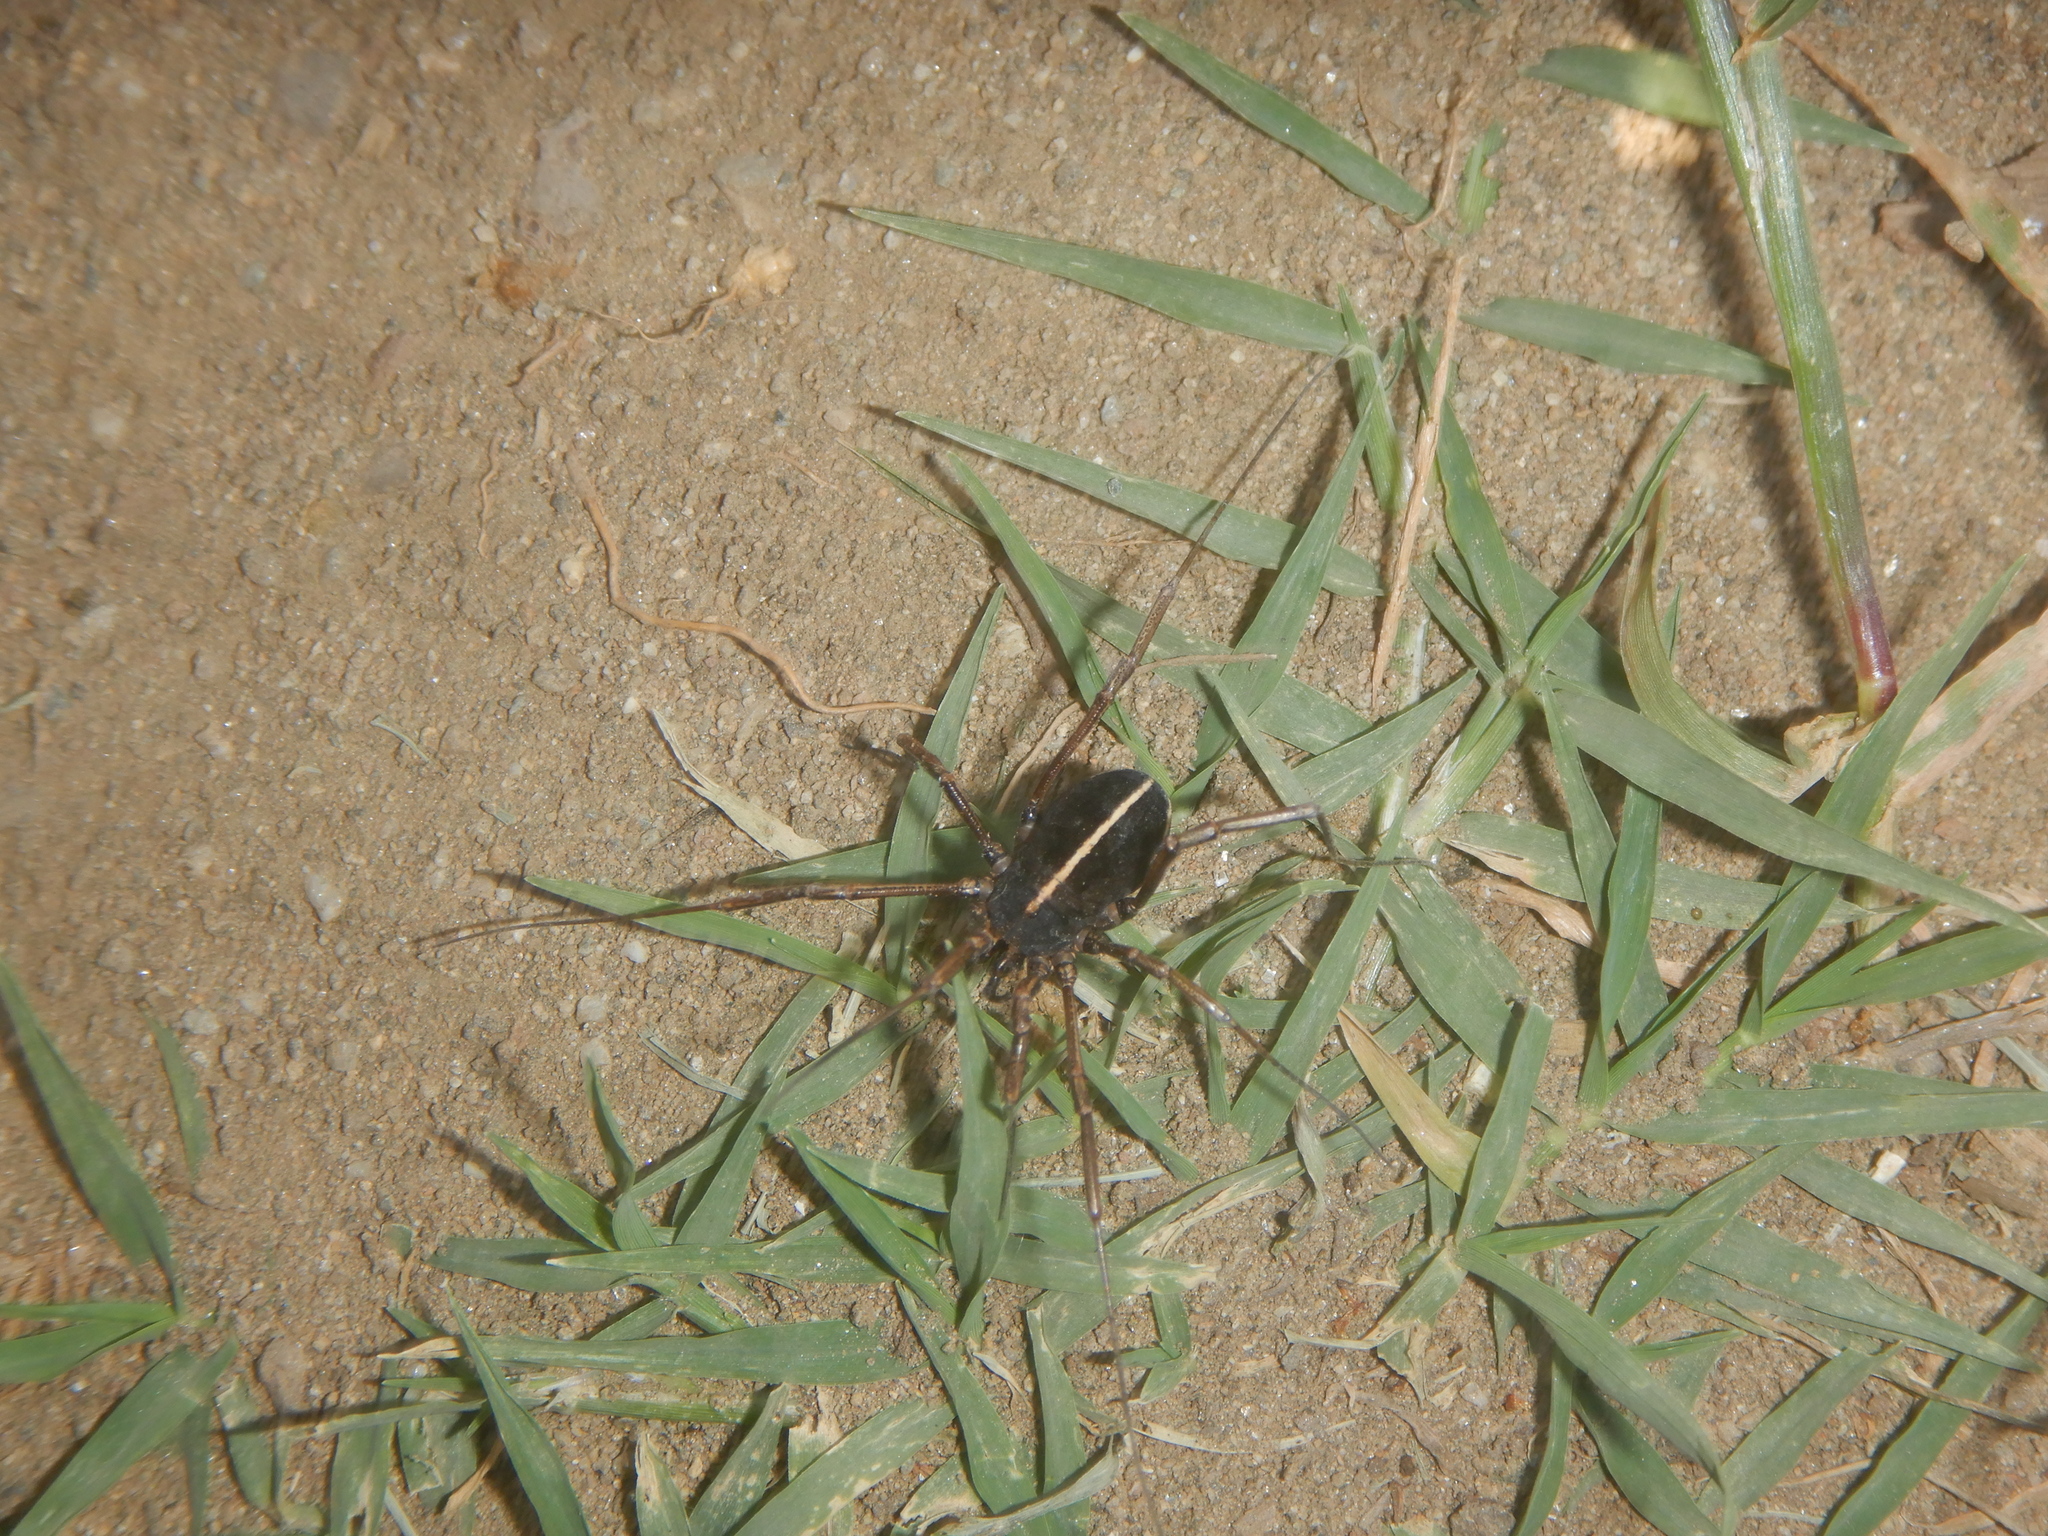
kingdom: Animalia
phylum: Arthropoda
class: Arachnida
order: Opiliones
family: Phalangiidae
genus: Zachaeus
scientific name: Zachaeus crista
